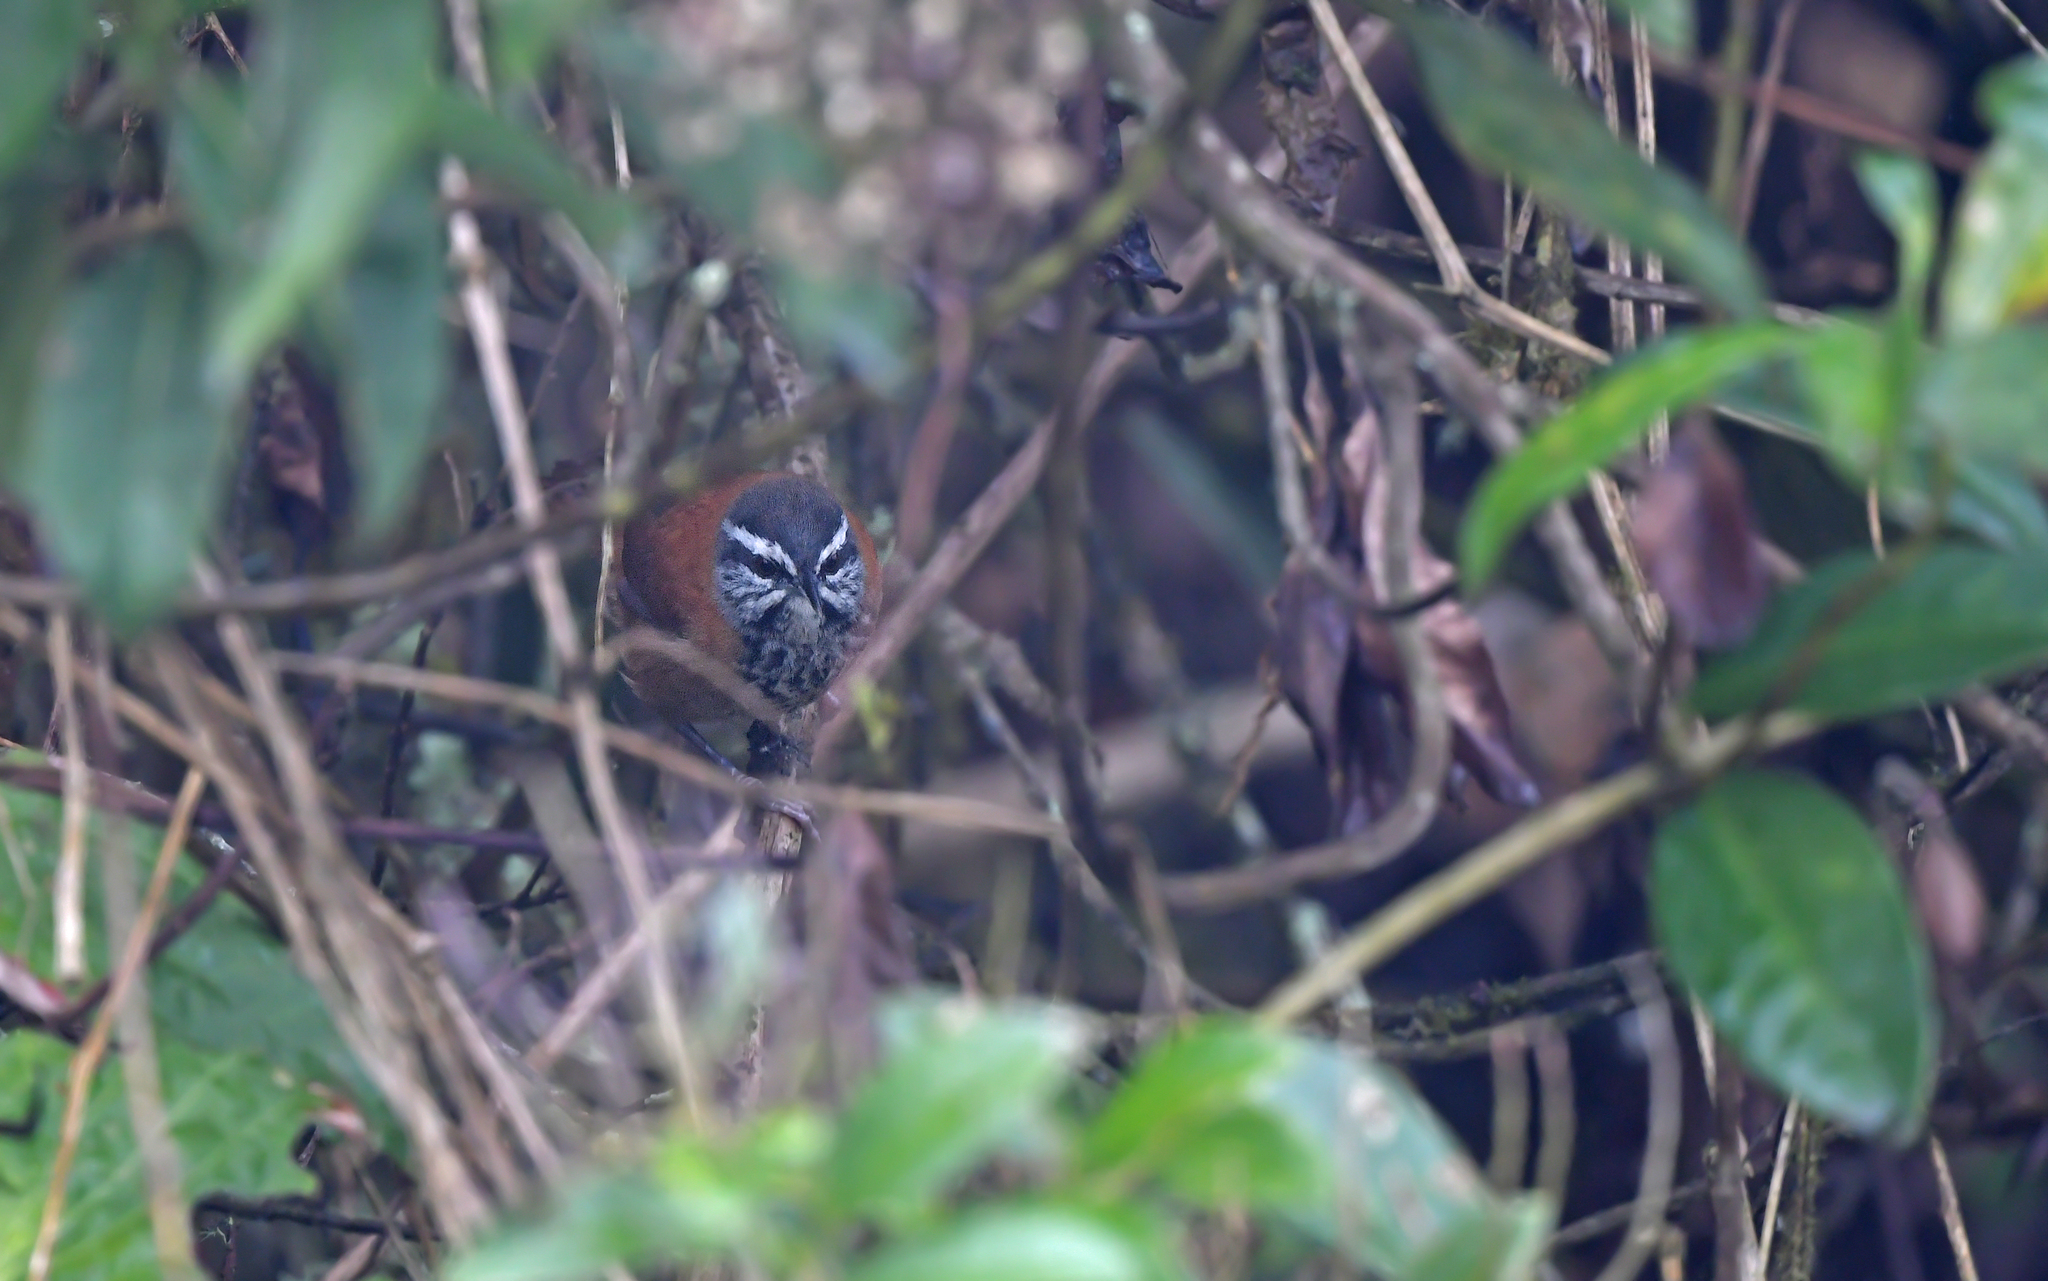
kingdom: Animalia
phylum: Chordata
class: Aves
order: Passeriformes
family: Troglodytidae
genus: Pheugopedius
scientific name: Pheugopedius eisenmanni
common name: Inca wren
